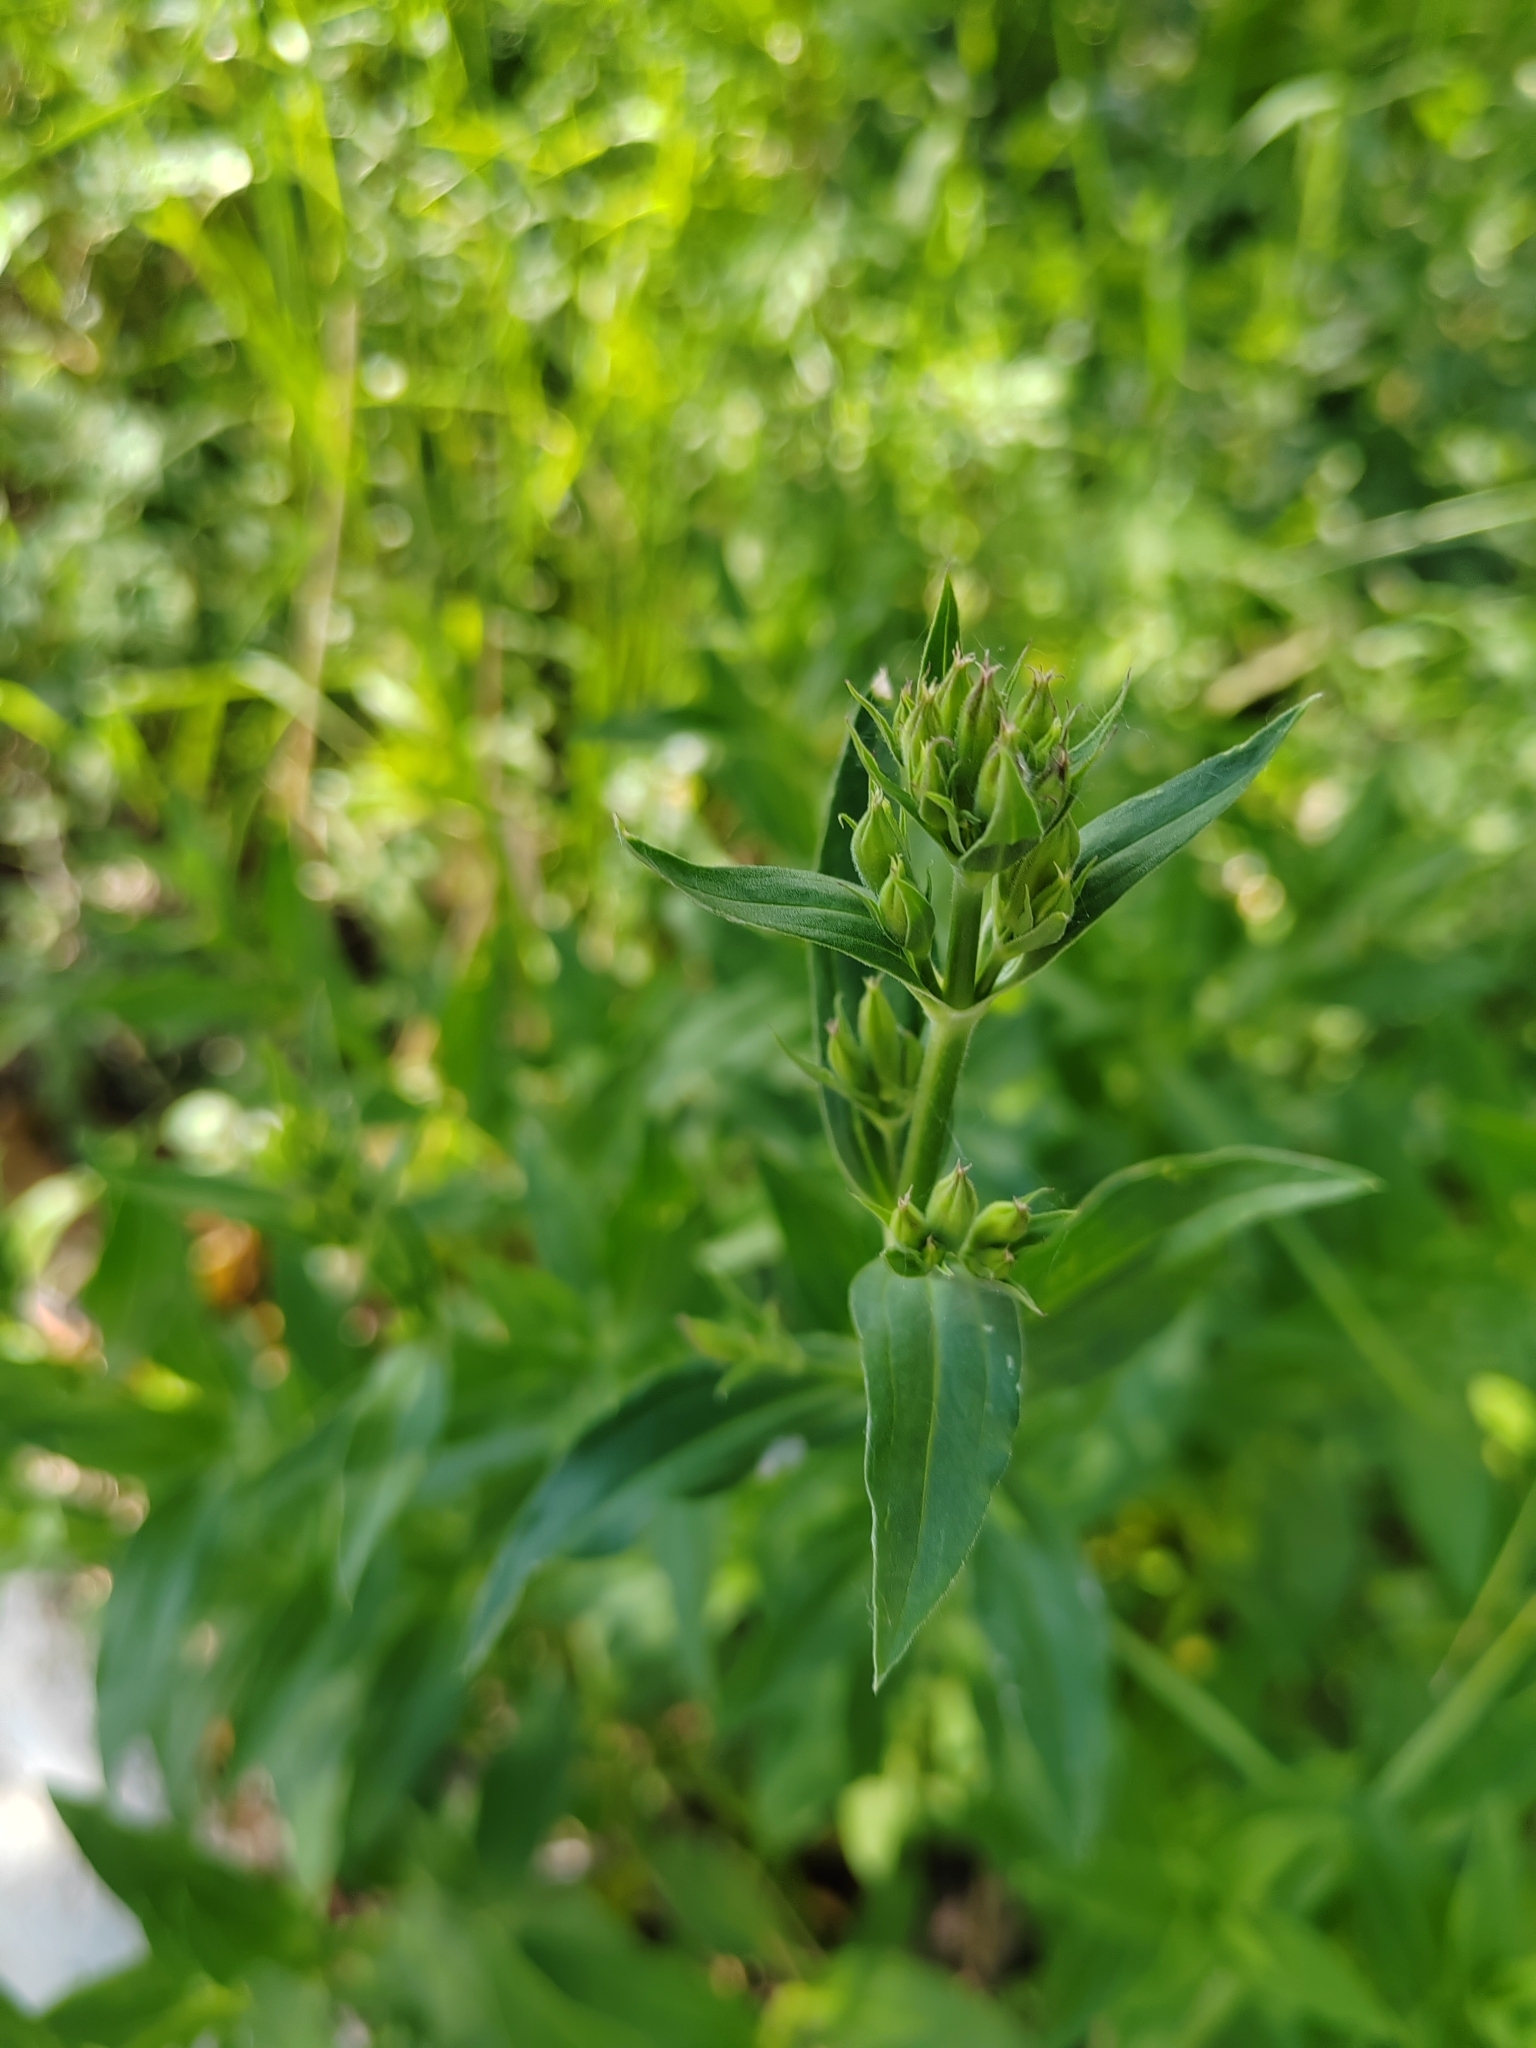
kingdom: Plantae
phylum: Tracheophyta
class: Magnoliopsida
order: Caryophyllales
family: Caryophyllaceae
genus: Saponaria
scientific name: Saponaria officinalis
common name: Soapwort
